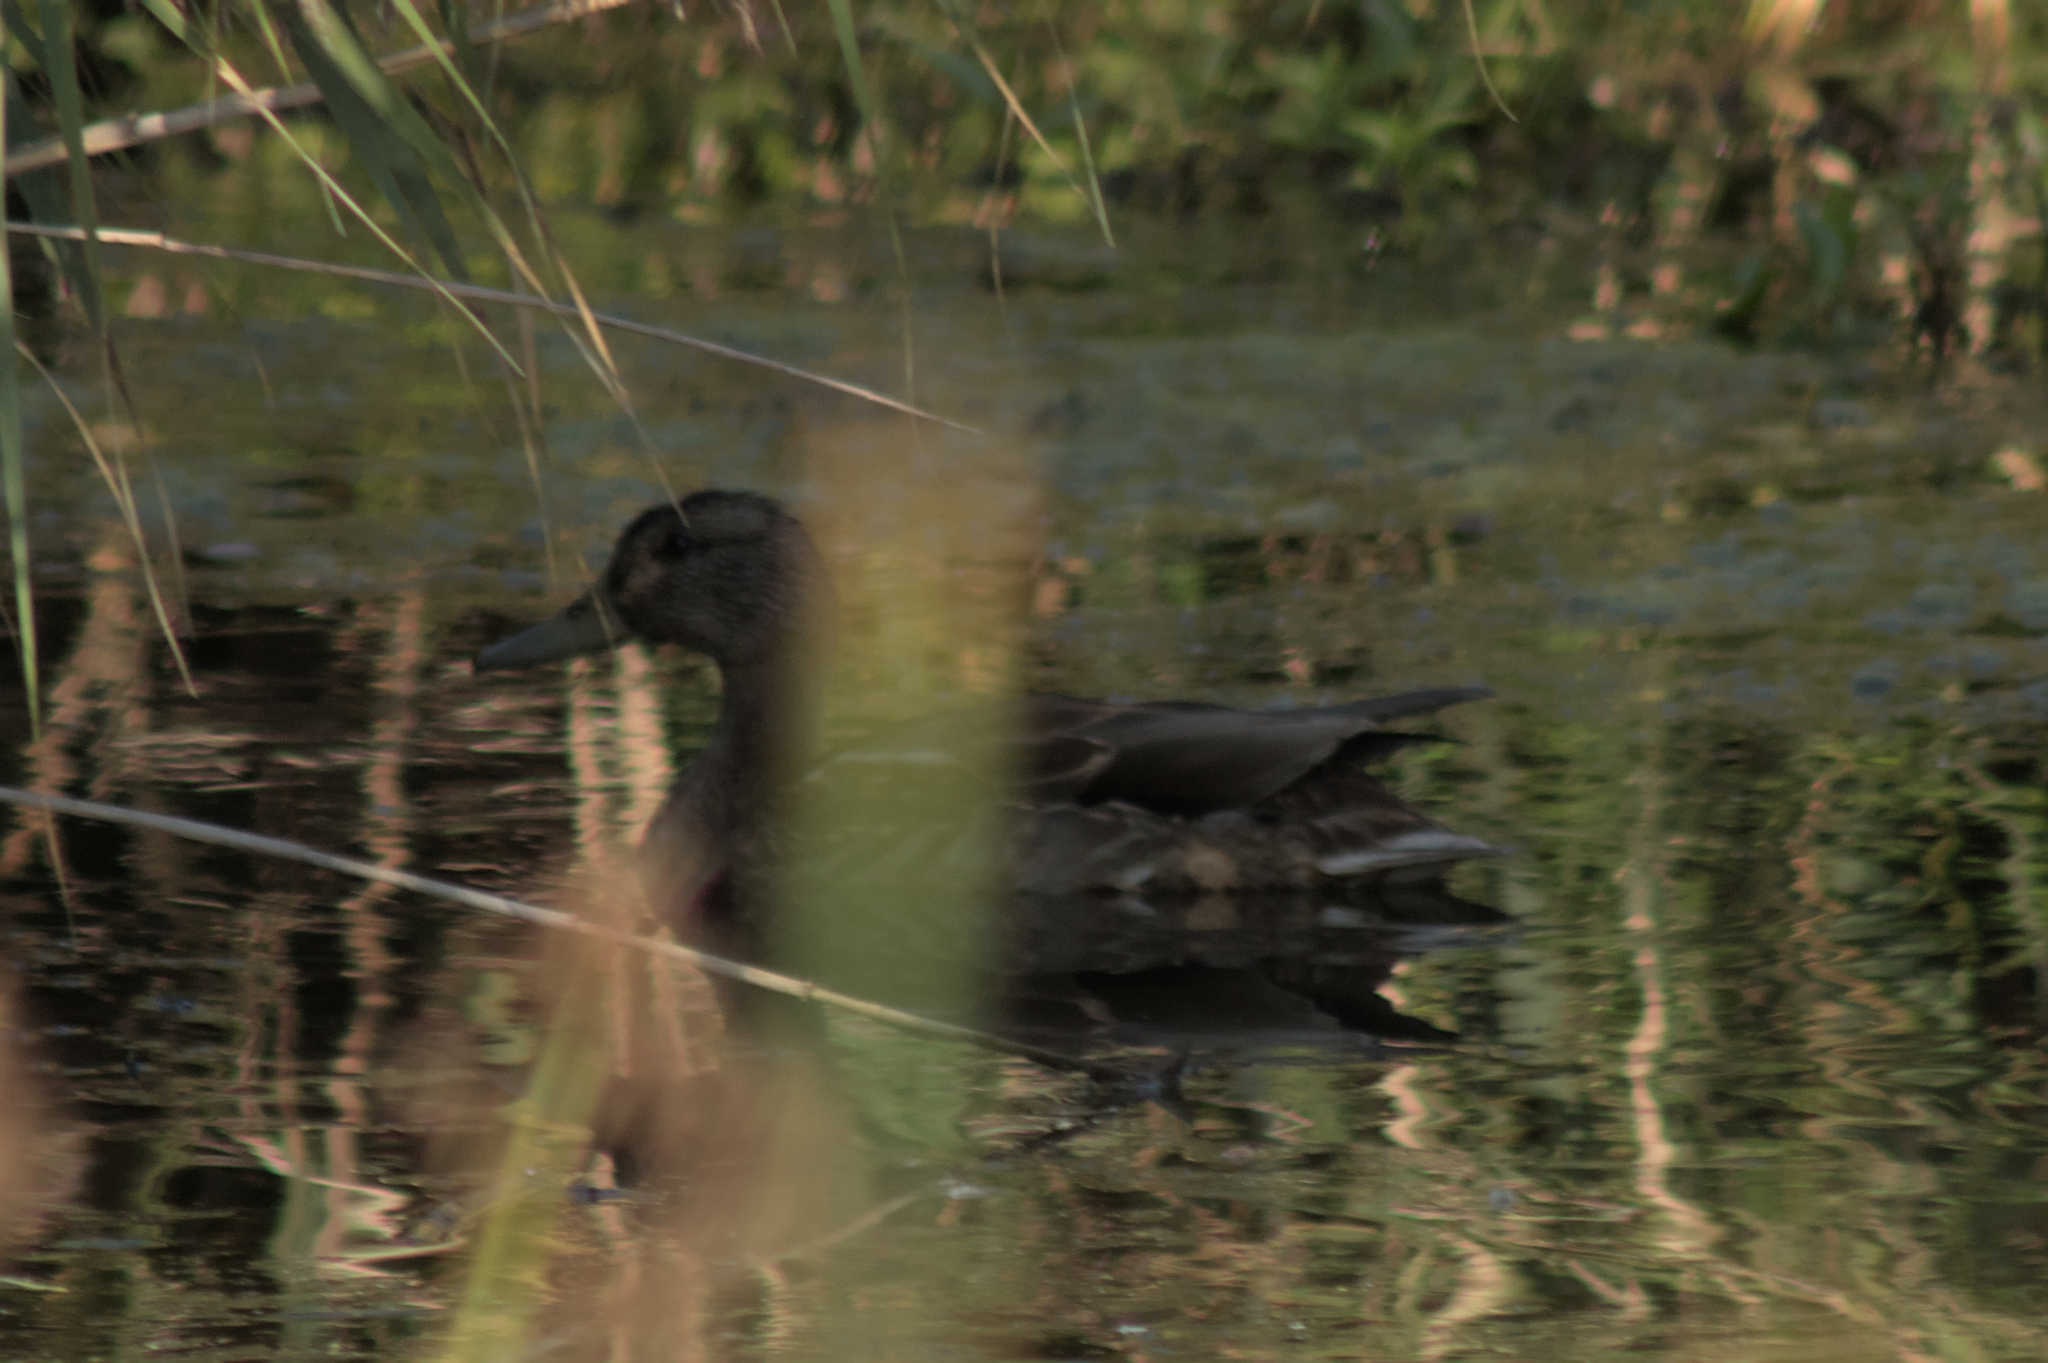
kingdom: Animalia
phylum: Chordata
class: Aves
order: Anseriformes
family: Anatidae
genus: Anas
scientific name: Anas platyrhynchos
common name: Mallard
